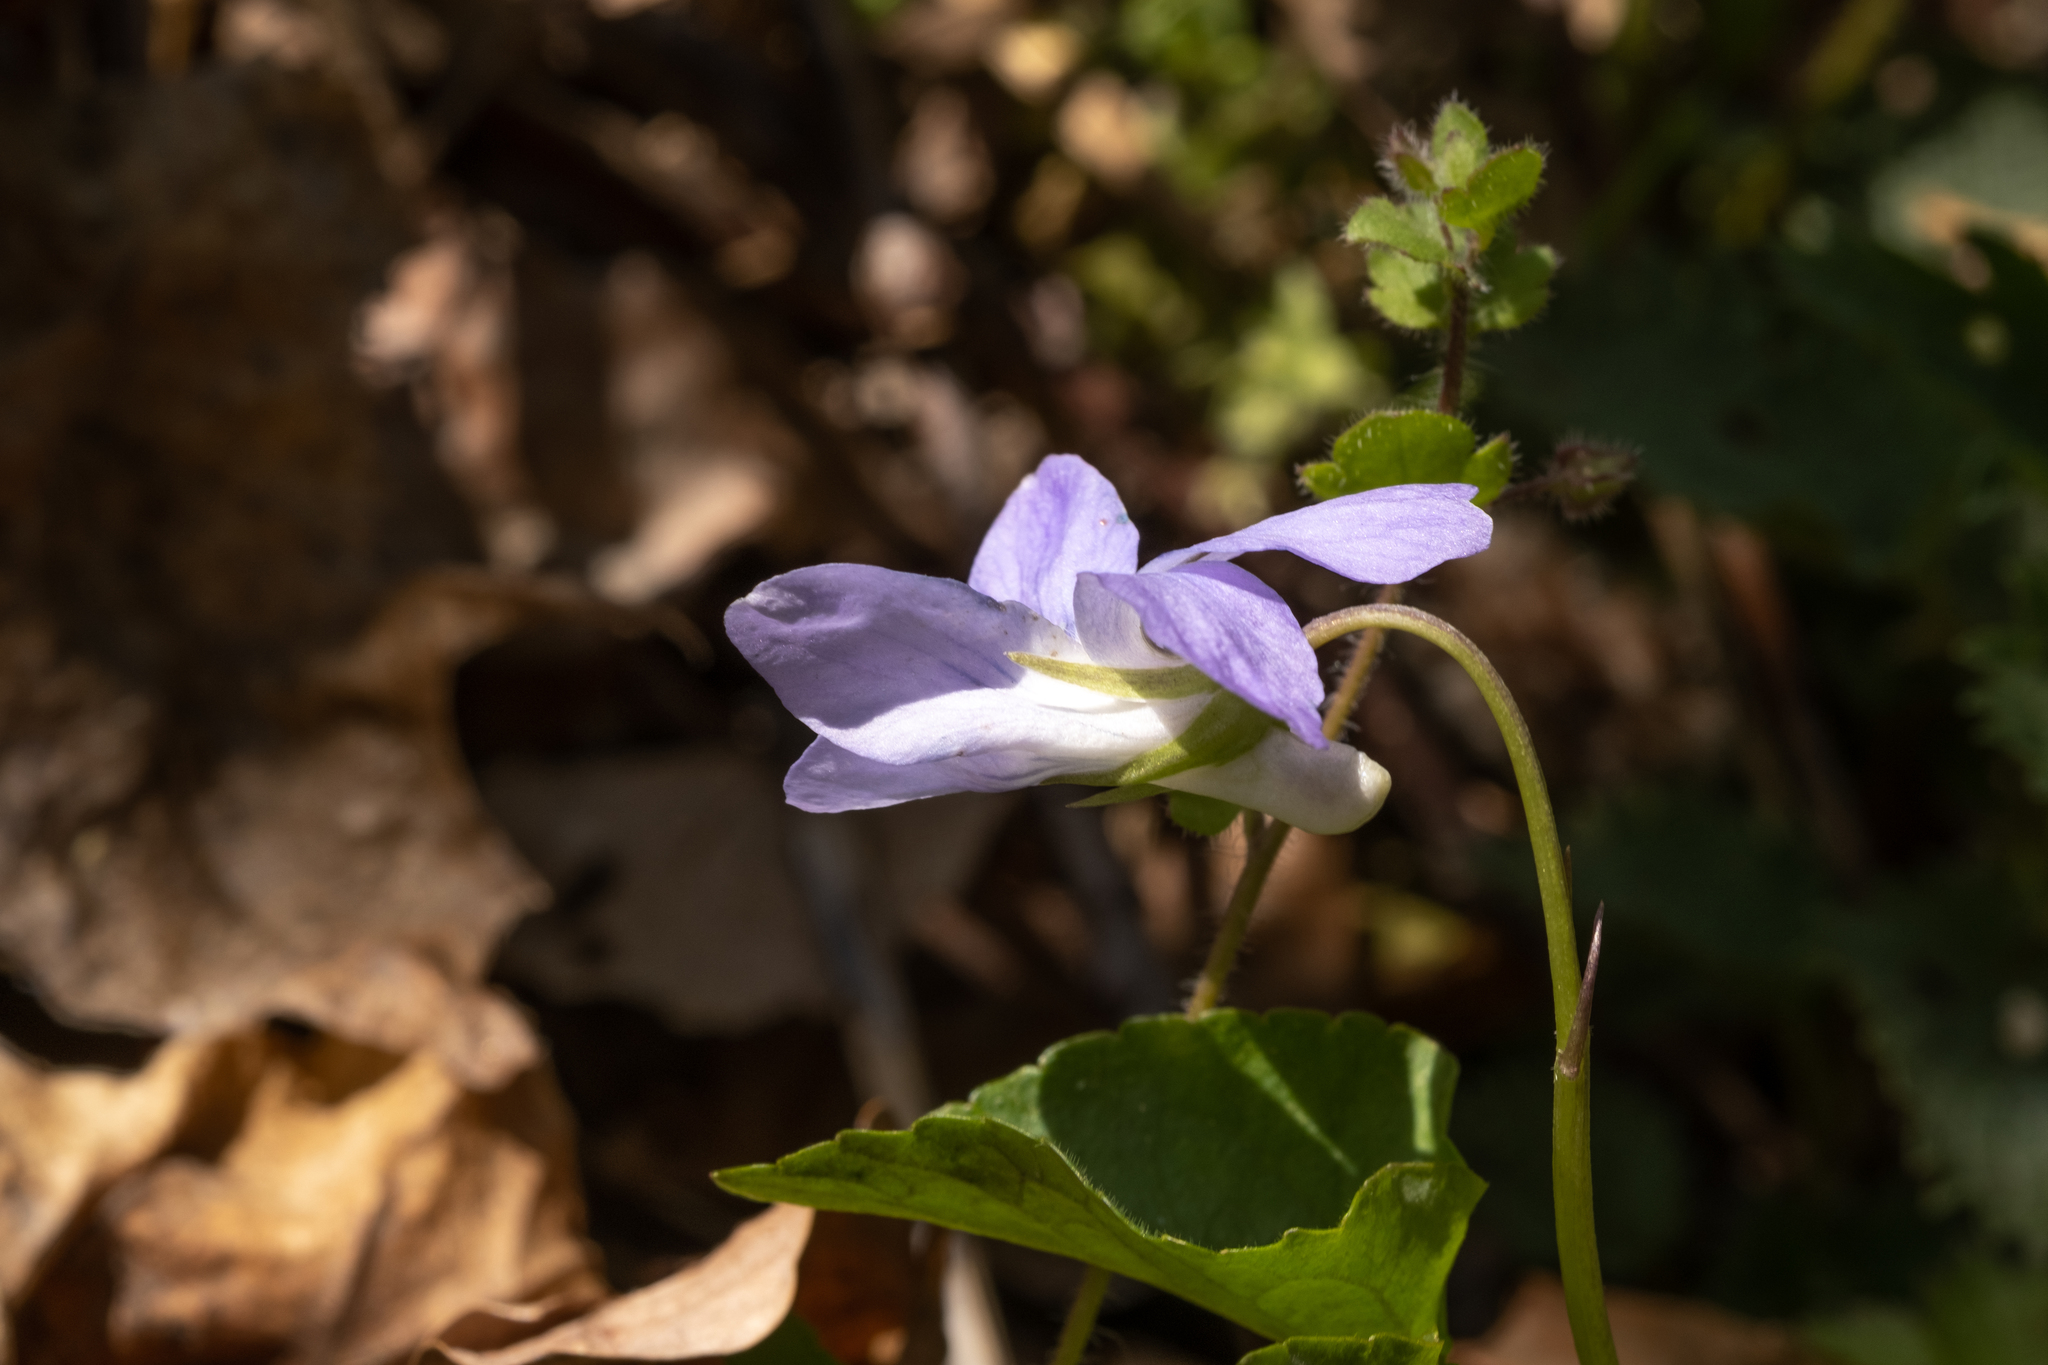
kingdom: Plantae
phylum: Tracheophyta
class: Magnoliopsida
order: Malpighiales
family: Violaceae
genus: Viola
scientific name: Viola riviniana
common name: Common dog-violet
